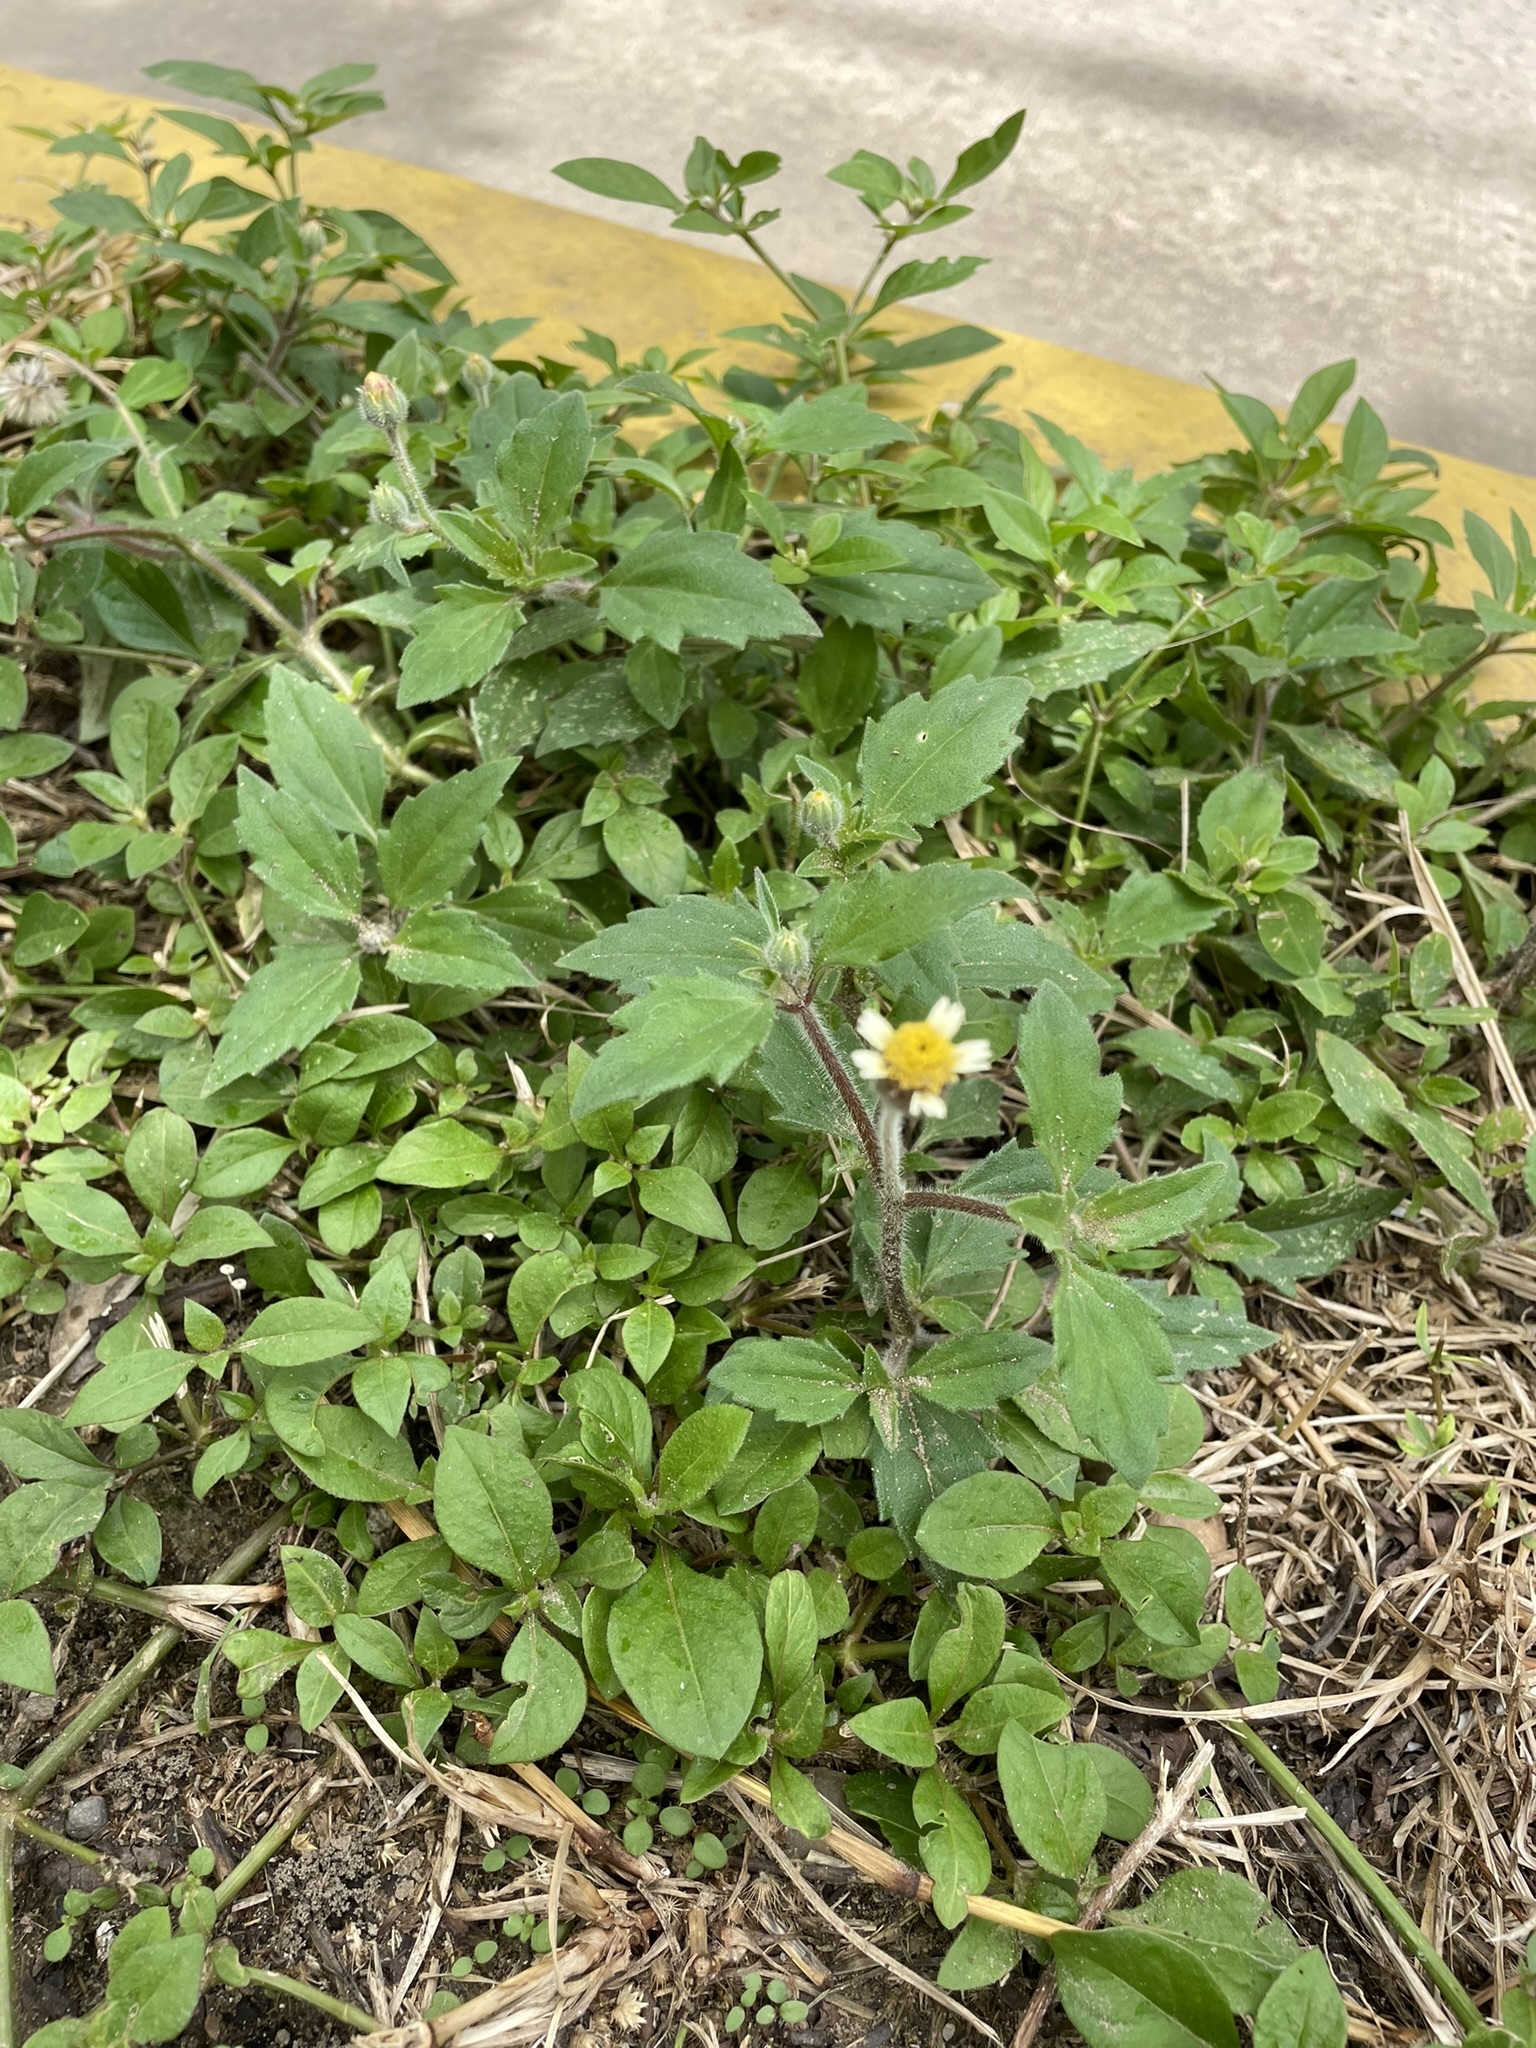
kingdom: Plantae
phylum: Tracheophyta
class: Magnoliopsida
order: Asterales
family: Asteraceae
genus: Tridax
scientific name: Tridax procumbens
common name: Coatbuttons
